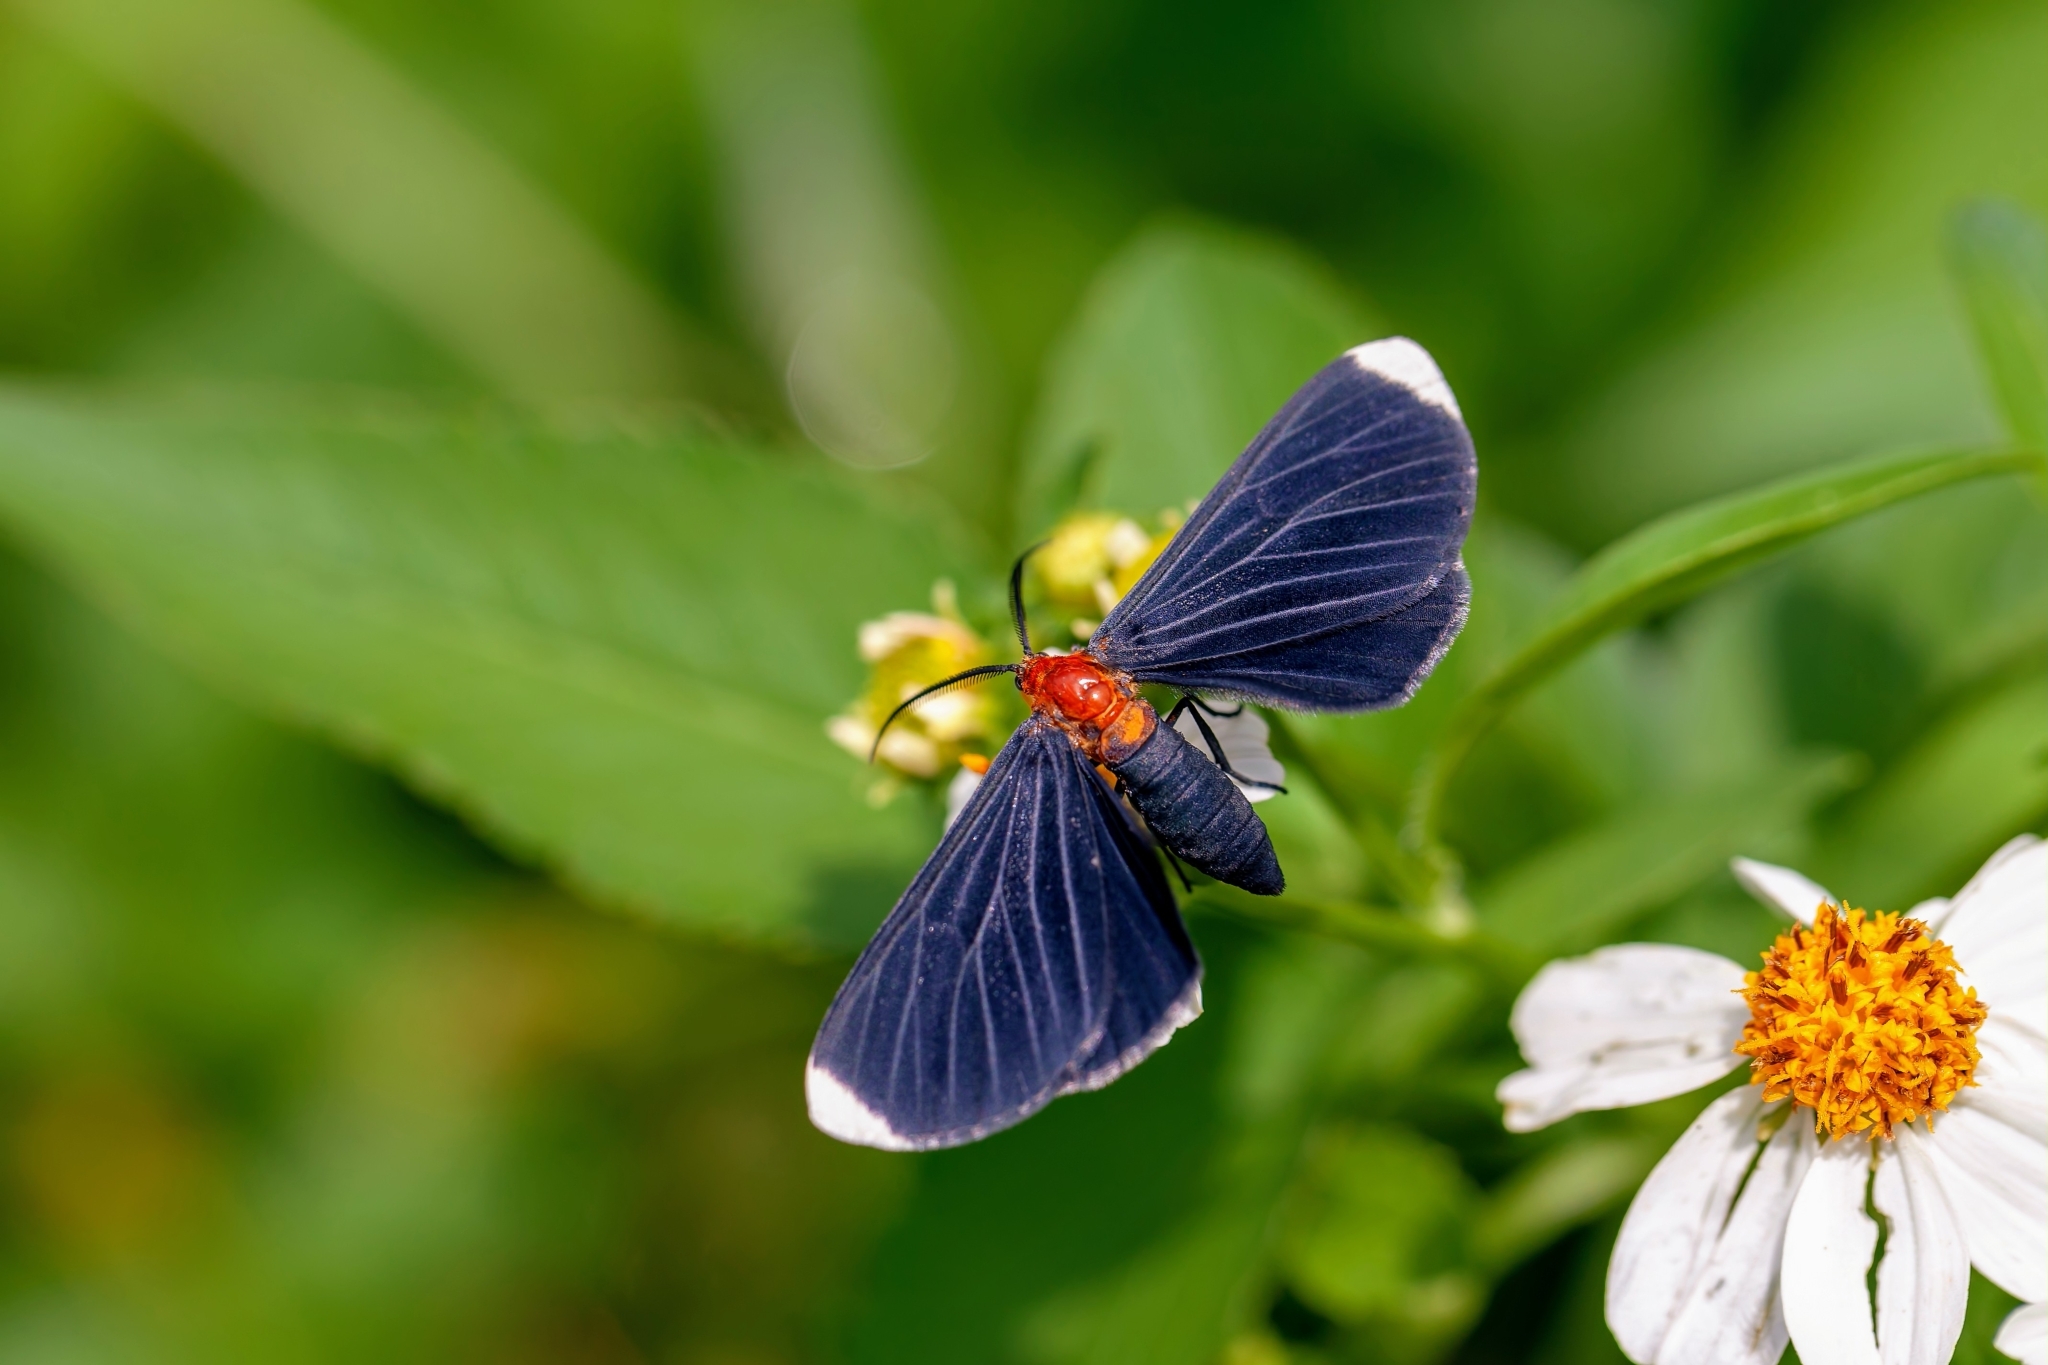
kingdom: Animalia
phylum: Arthropoda
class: Insecta
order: Lepidoptera
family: Geometridae
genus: Melanchroia
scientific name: Melanchroia chephise
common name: White-tipped black
